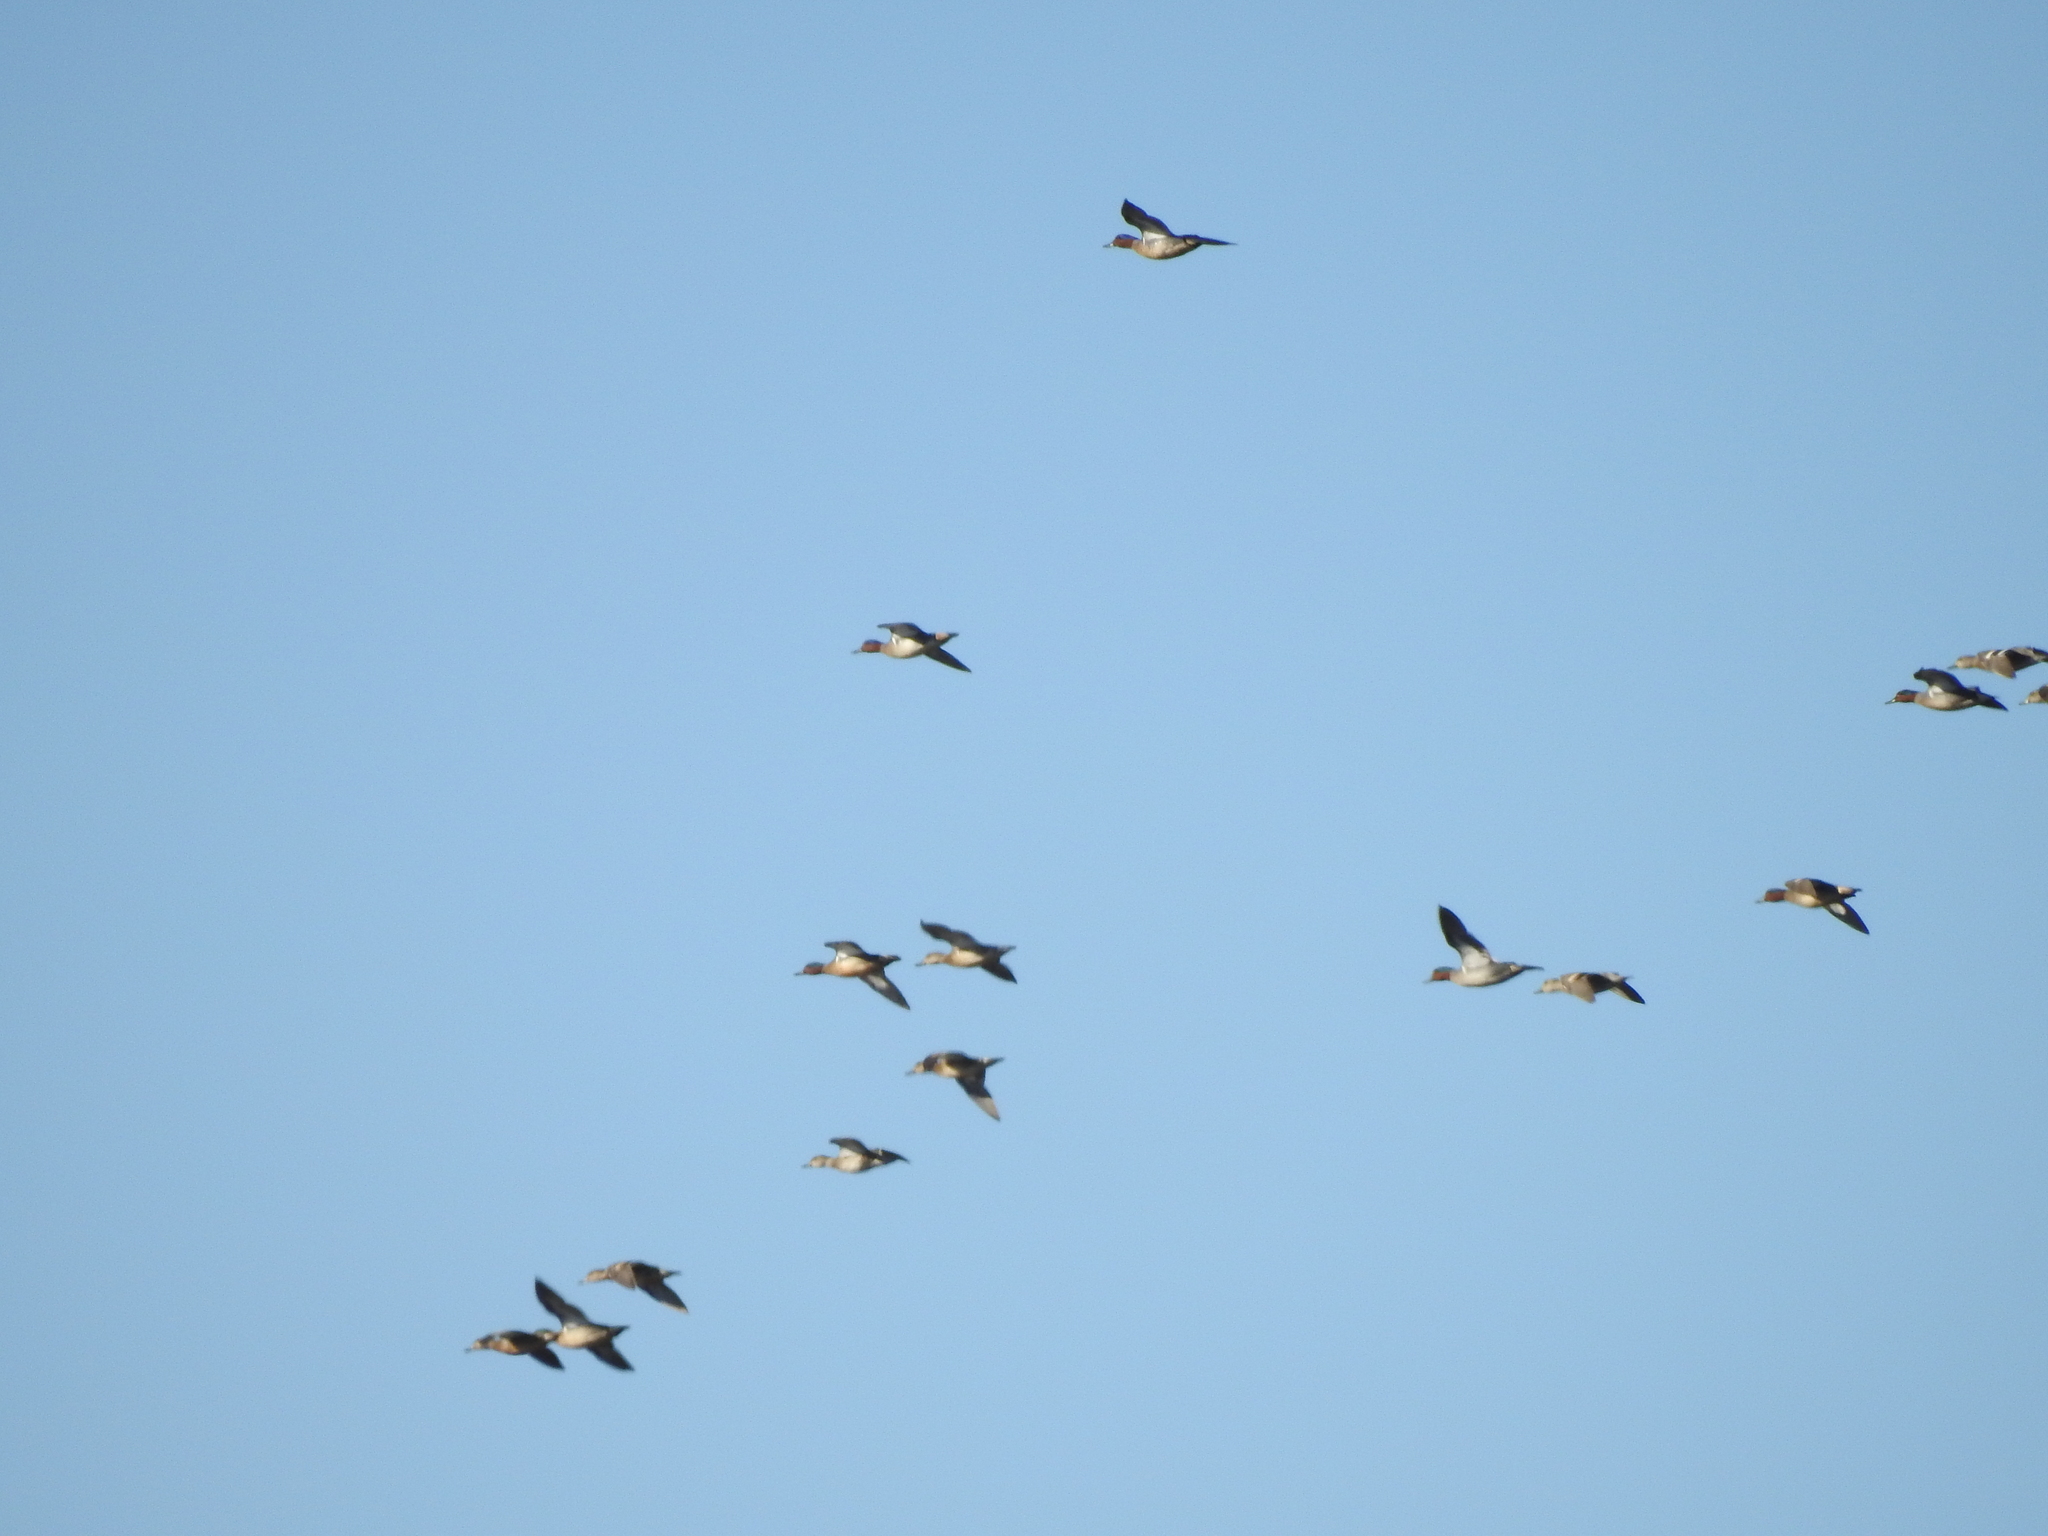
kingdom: Animalia
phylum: Chordata
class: Aves
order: Anseriformes
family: Anatidae
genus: Anas
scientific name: Anas crecca
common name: Eurasian teal
